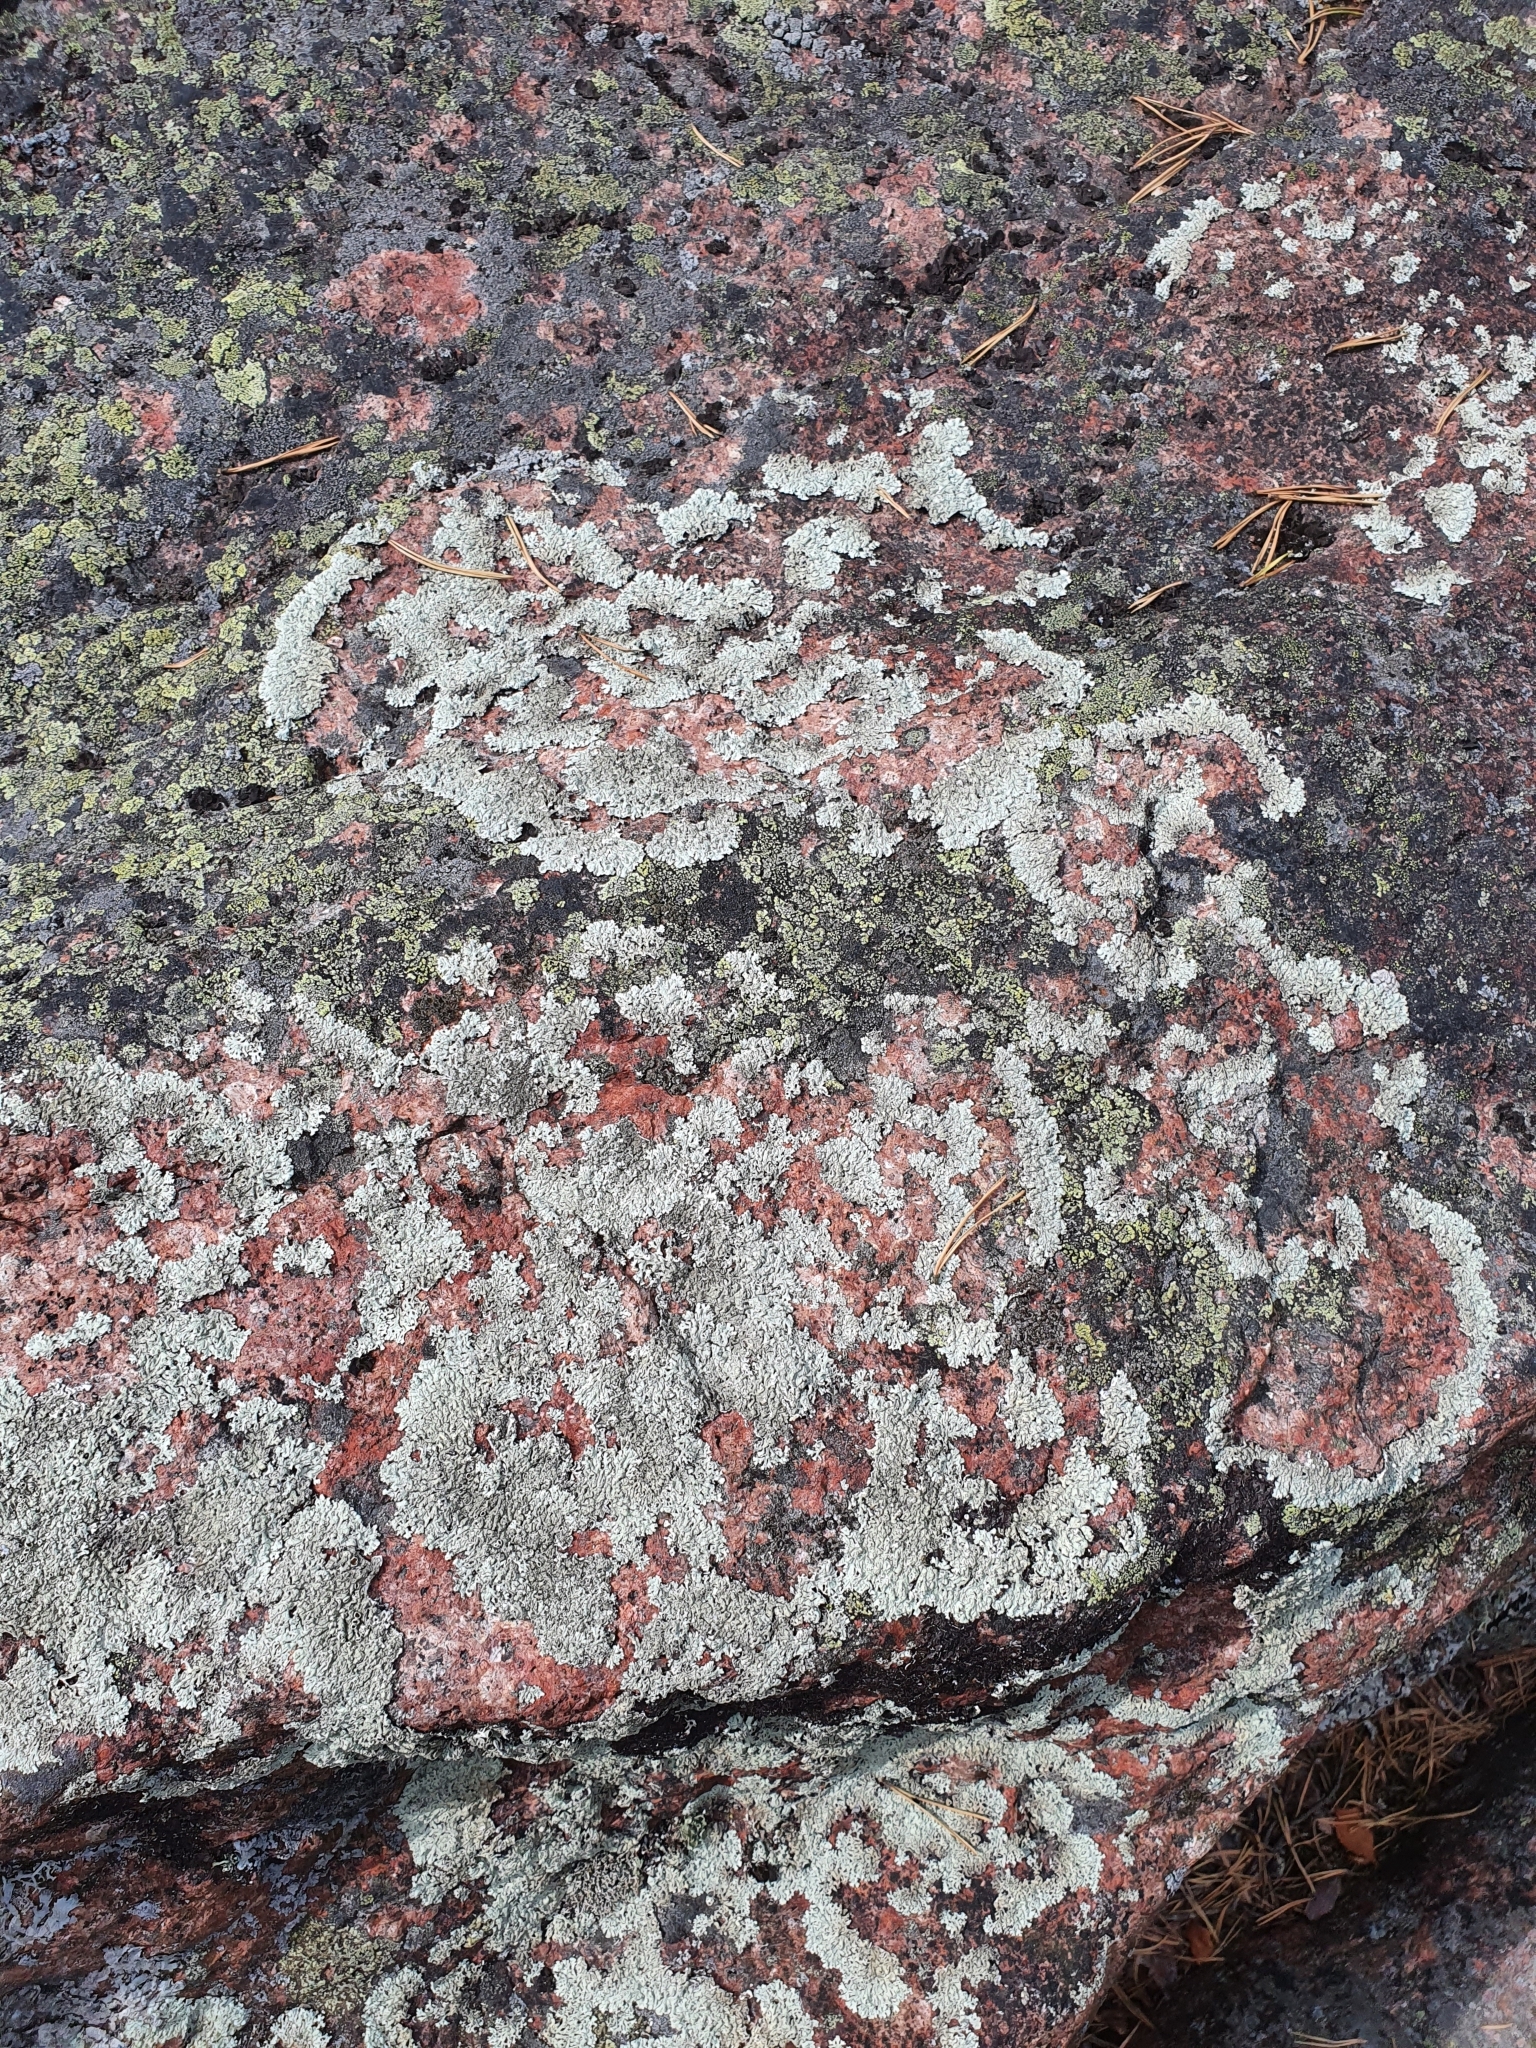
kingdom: Fungi
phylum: Ascomycota
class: Lecanoromycetes
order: Lecanorales
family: Parmeliaceae
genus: Arctoparmelia
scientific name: Arctoparmelia centrifuga
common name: Concentric ring lichen
